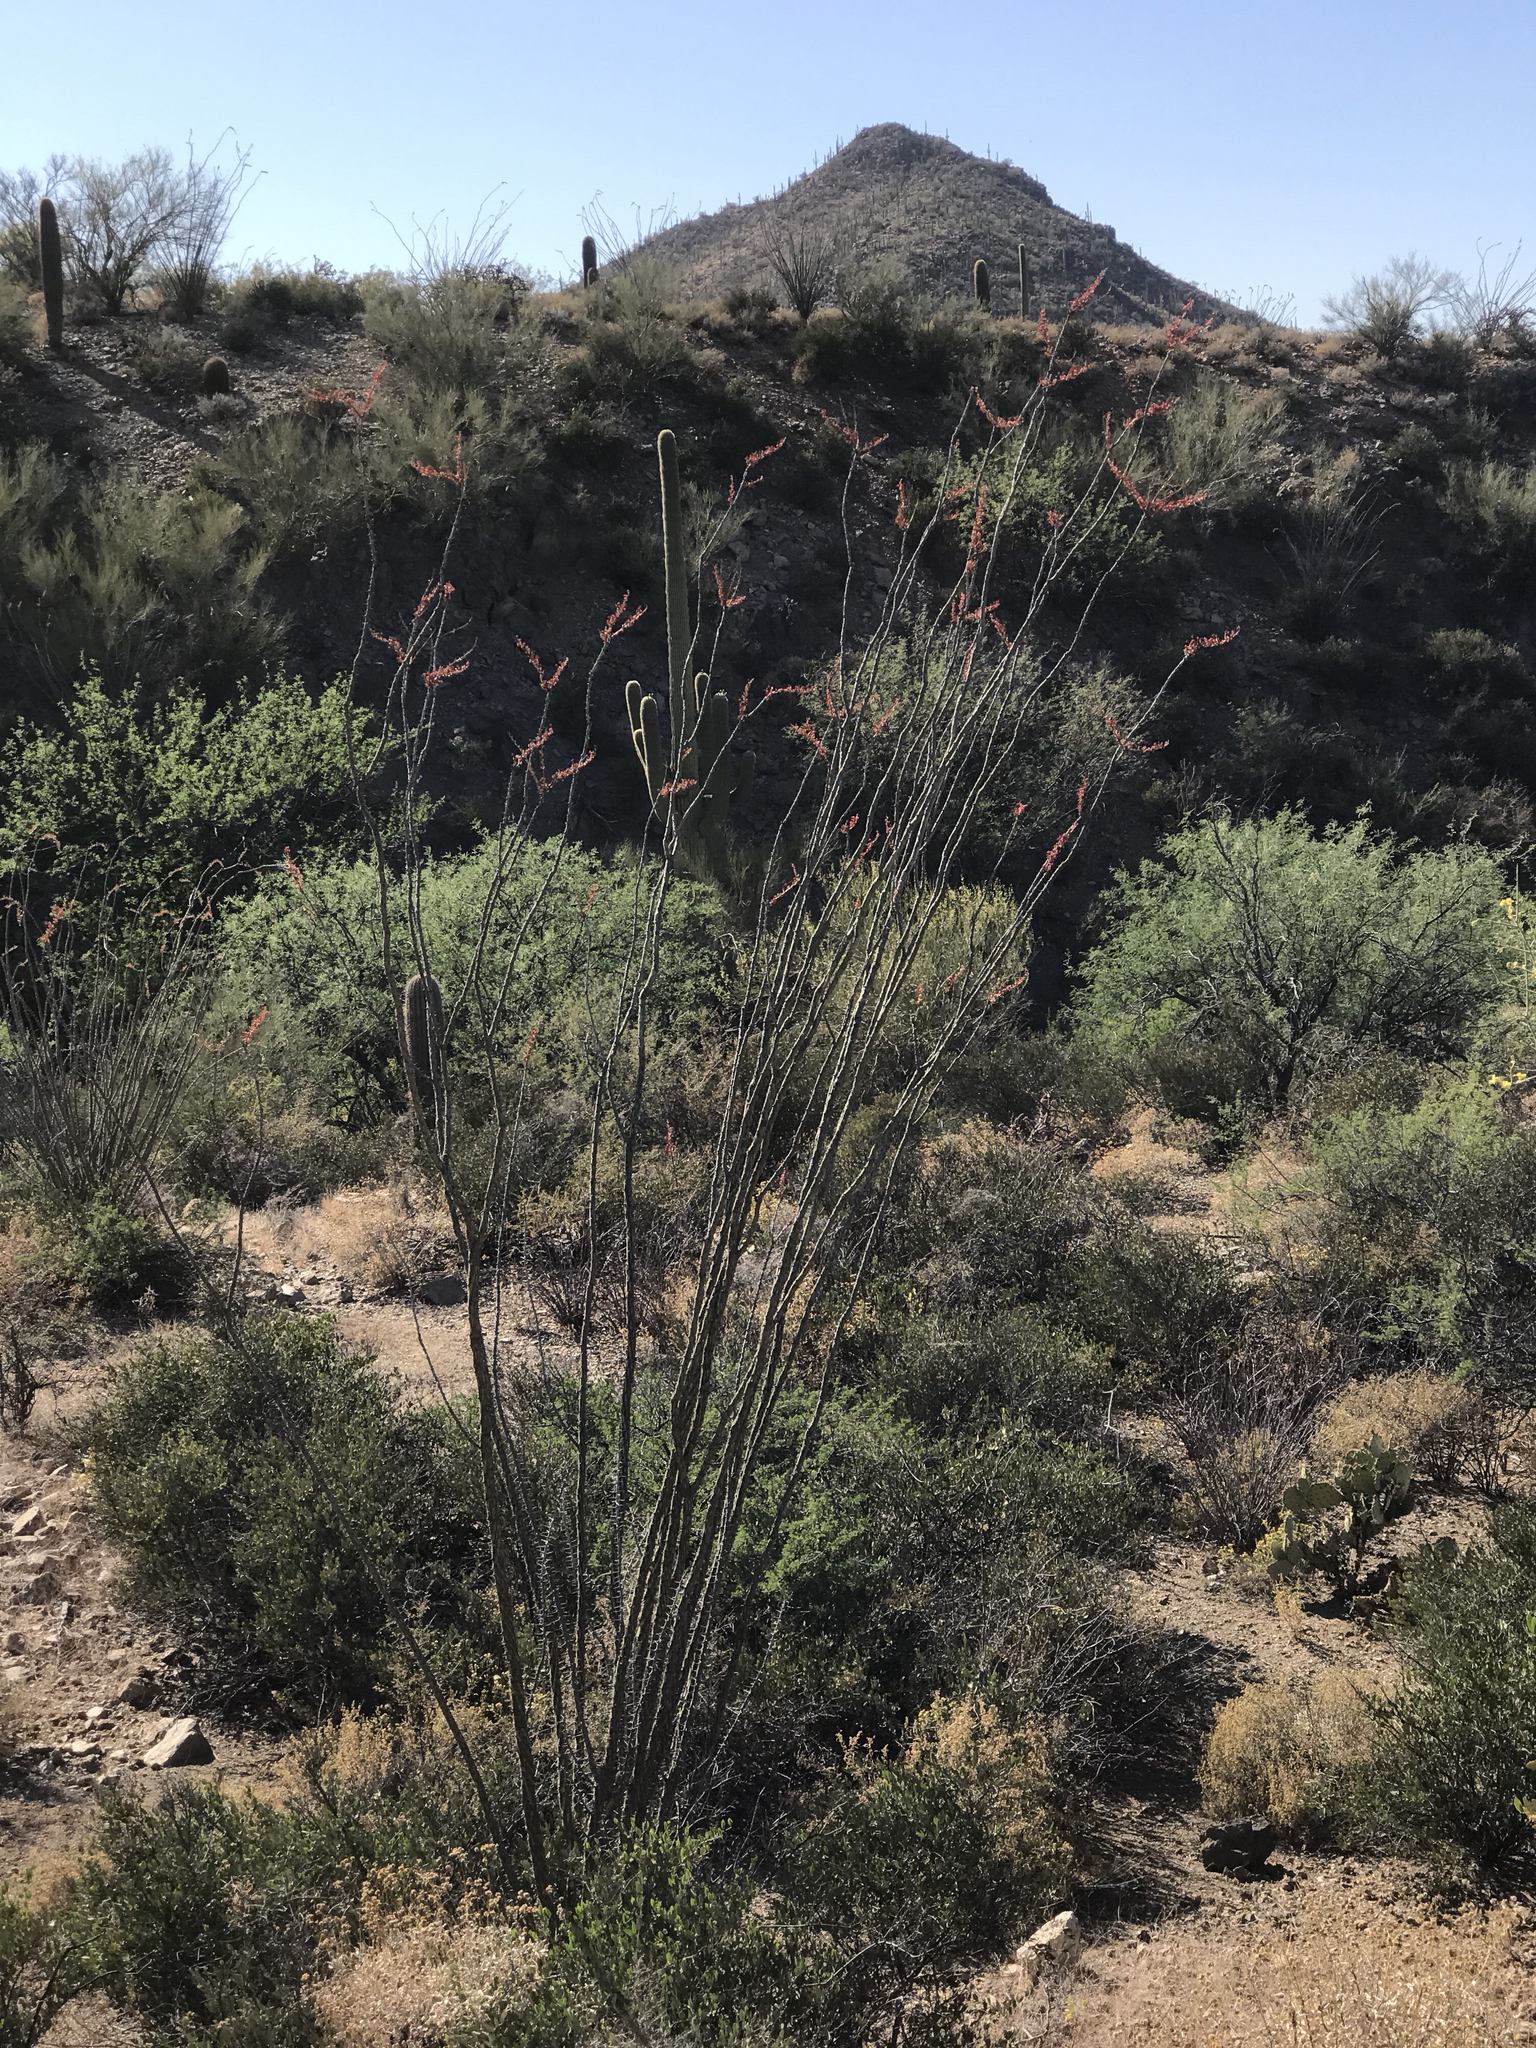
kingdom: Plantae
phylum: Tracheophyta
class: Magnoliopsida
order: Ericales
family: Fouquieriaceae
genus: Fouquieria
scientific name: Fouquieria splendens
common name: Vine-cactus
